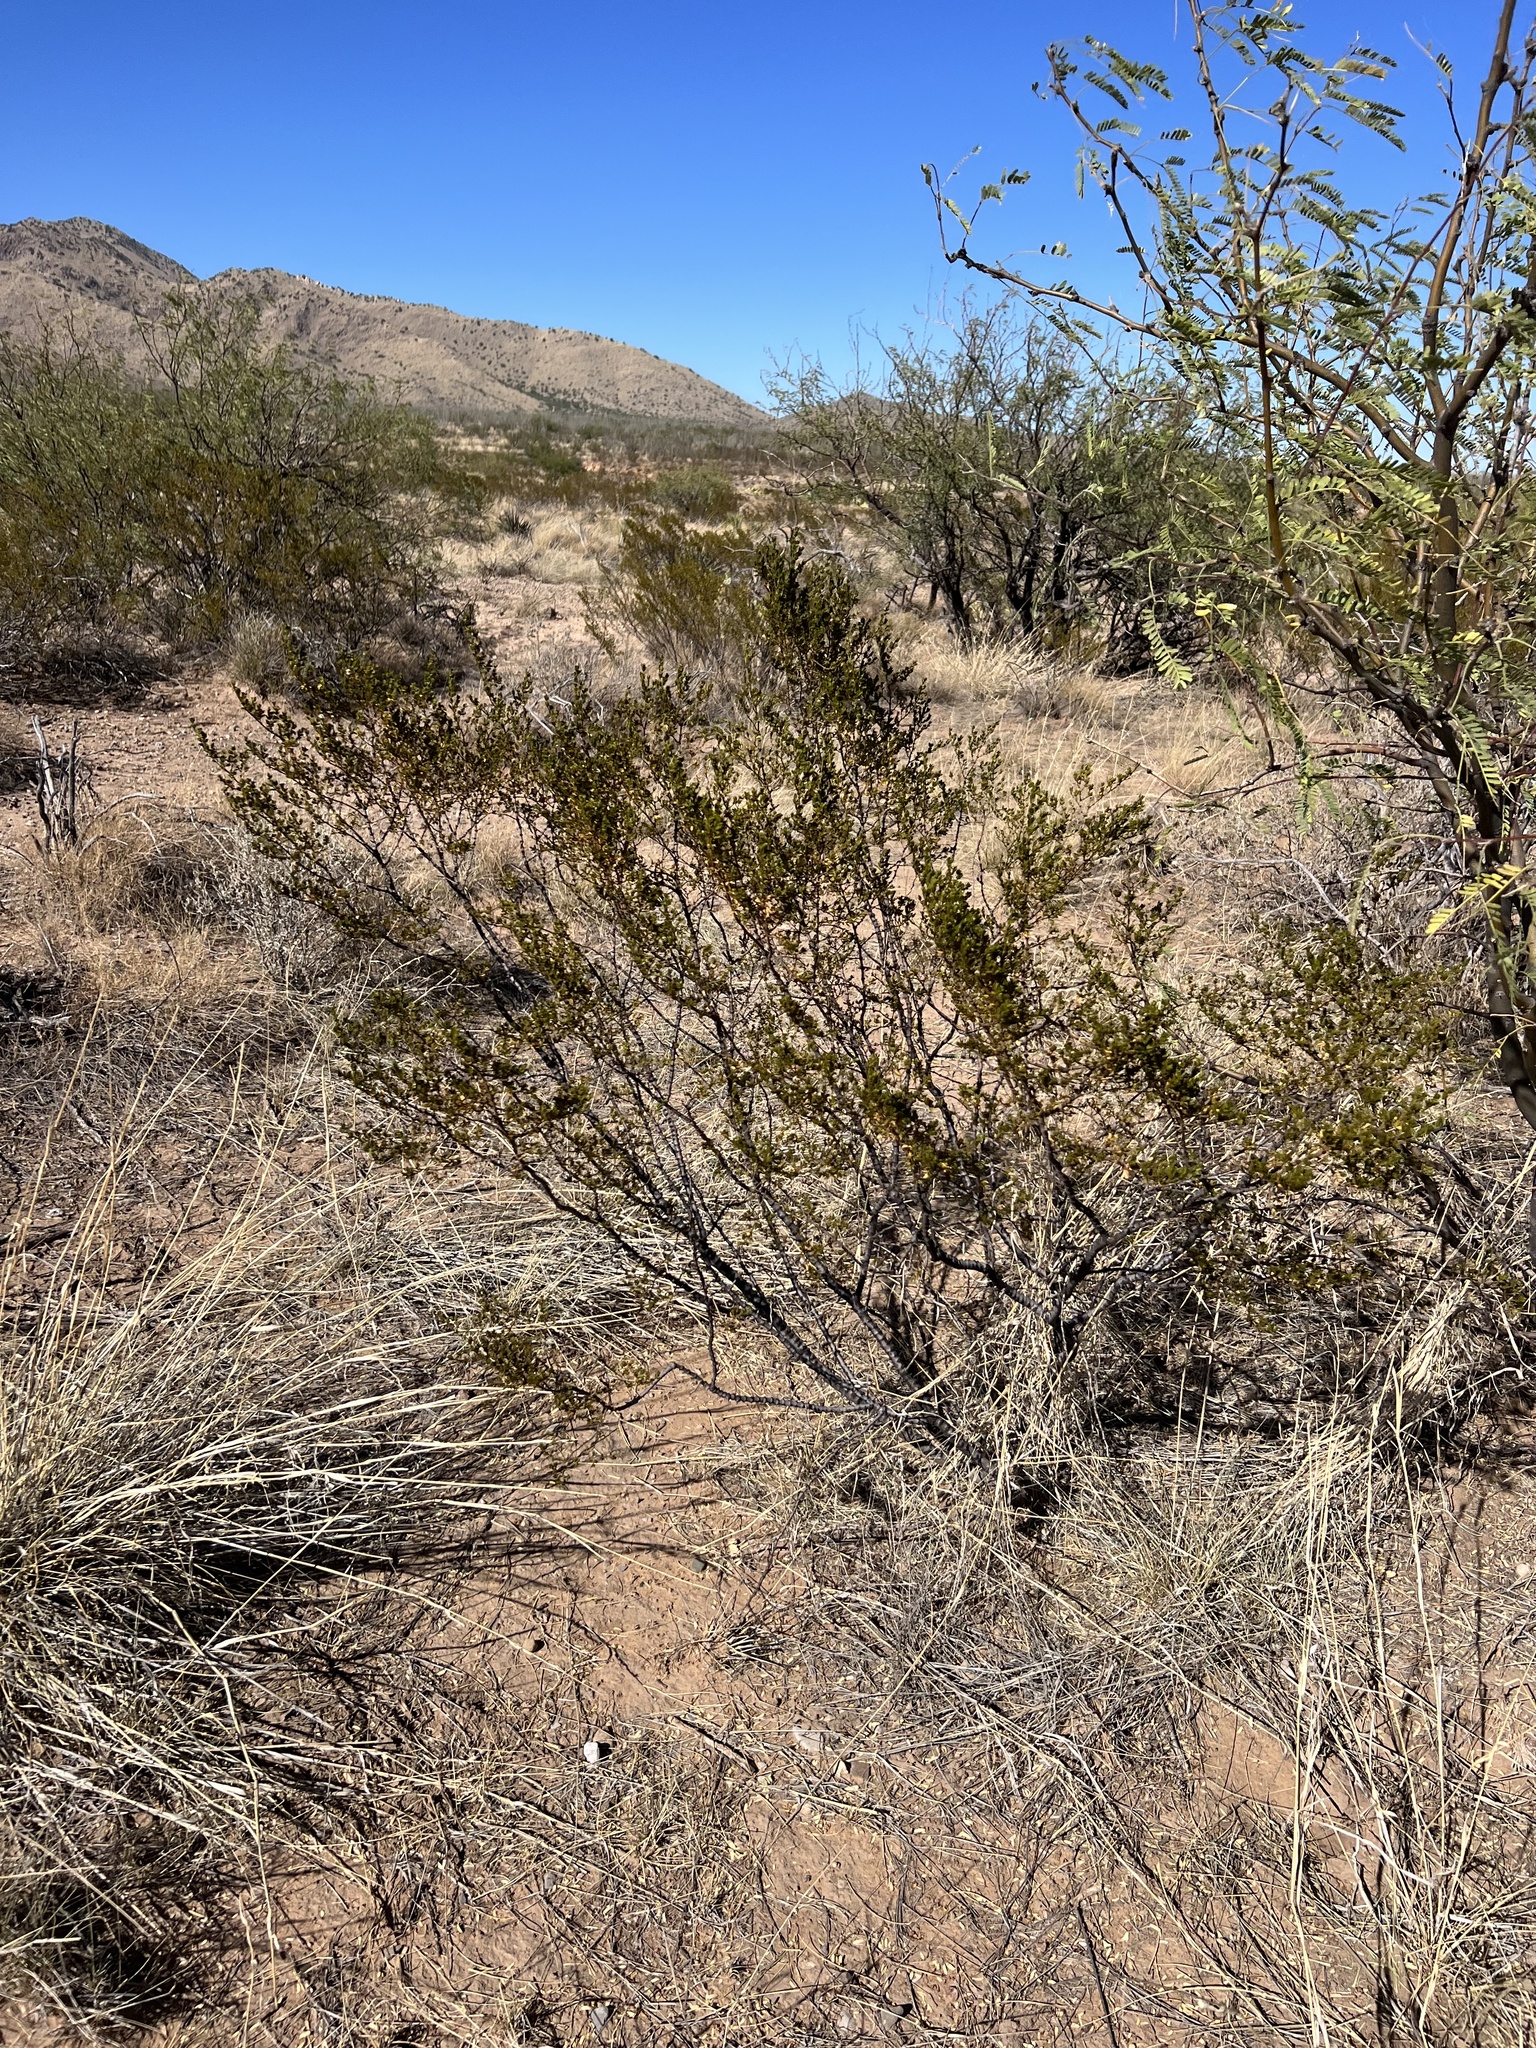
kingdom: Plantae
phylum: Tracheophyta
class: Magnoliopsida
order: Zygophyllales
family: Zygophyllaceae
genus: Larrea
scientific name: Larrea tridentata
